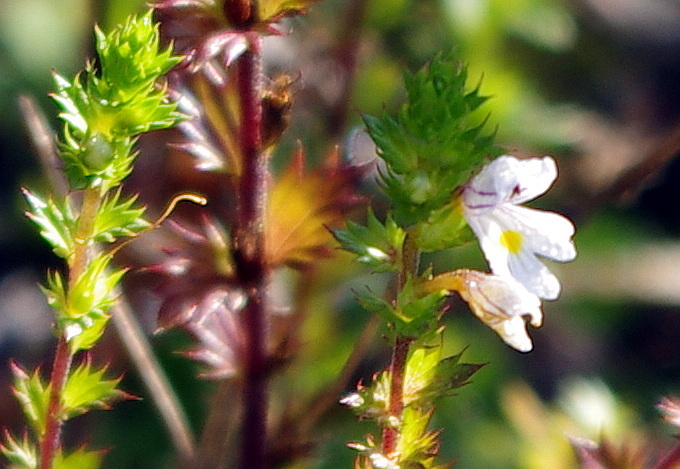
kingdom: Plantae
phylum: Tracheophyta
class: Magnoliopsida
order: Lamiales
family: Orobanchaceae
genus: Euphrasia
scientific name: Euphrasia
